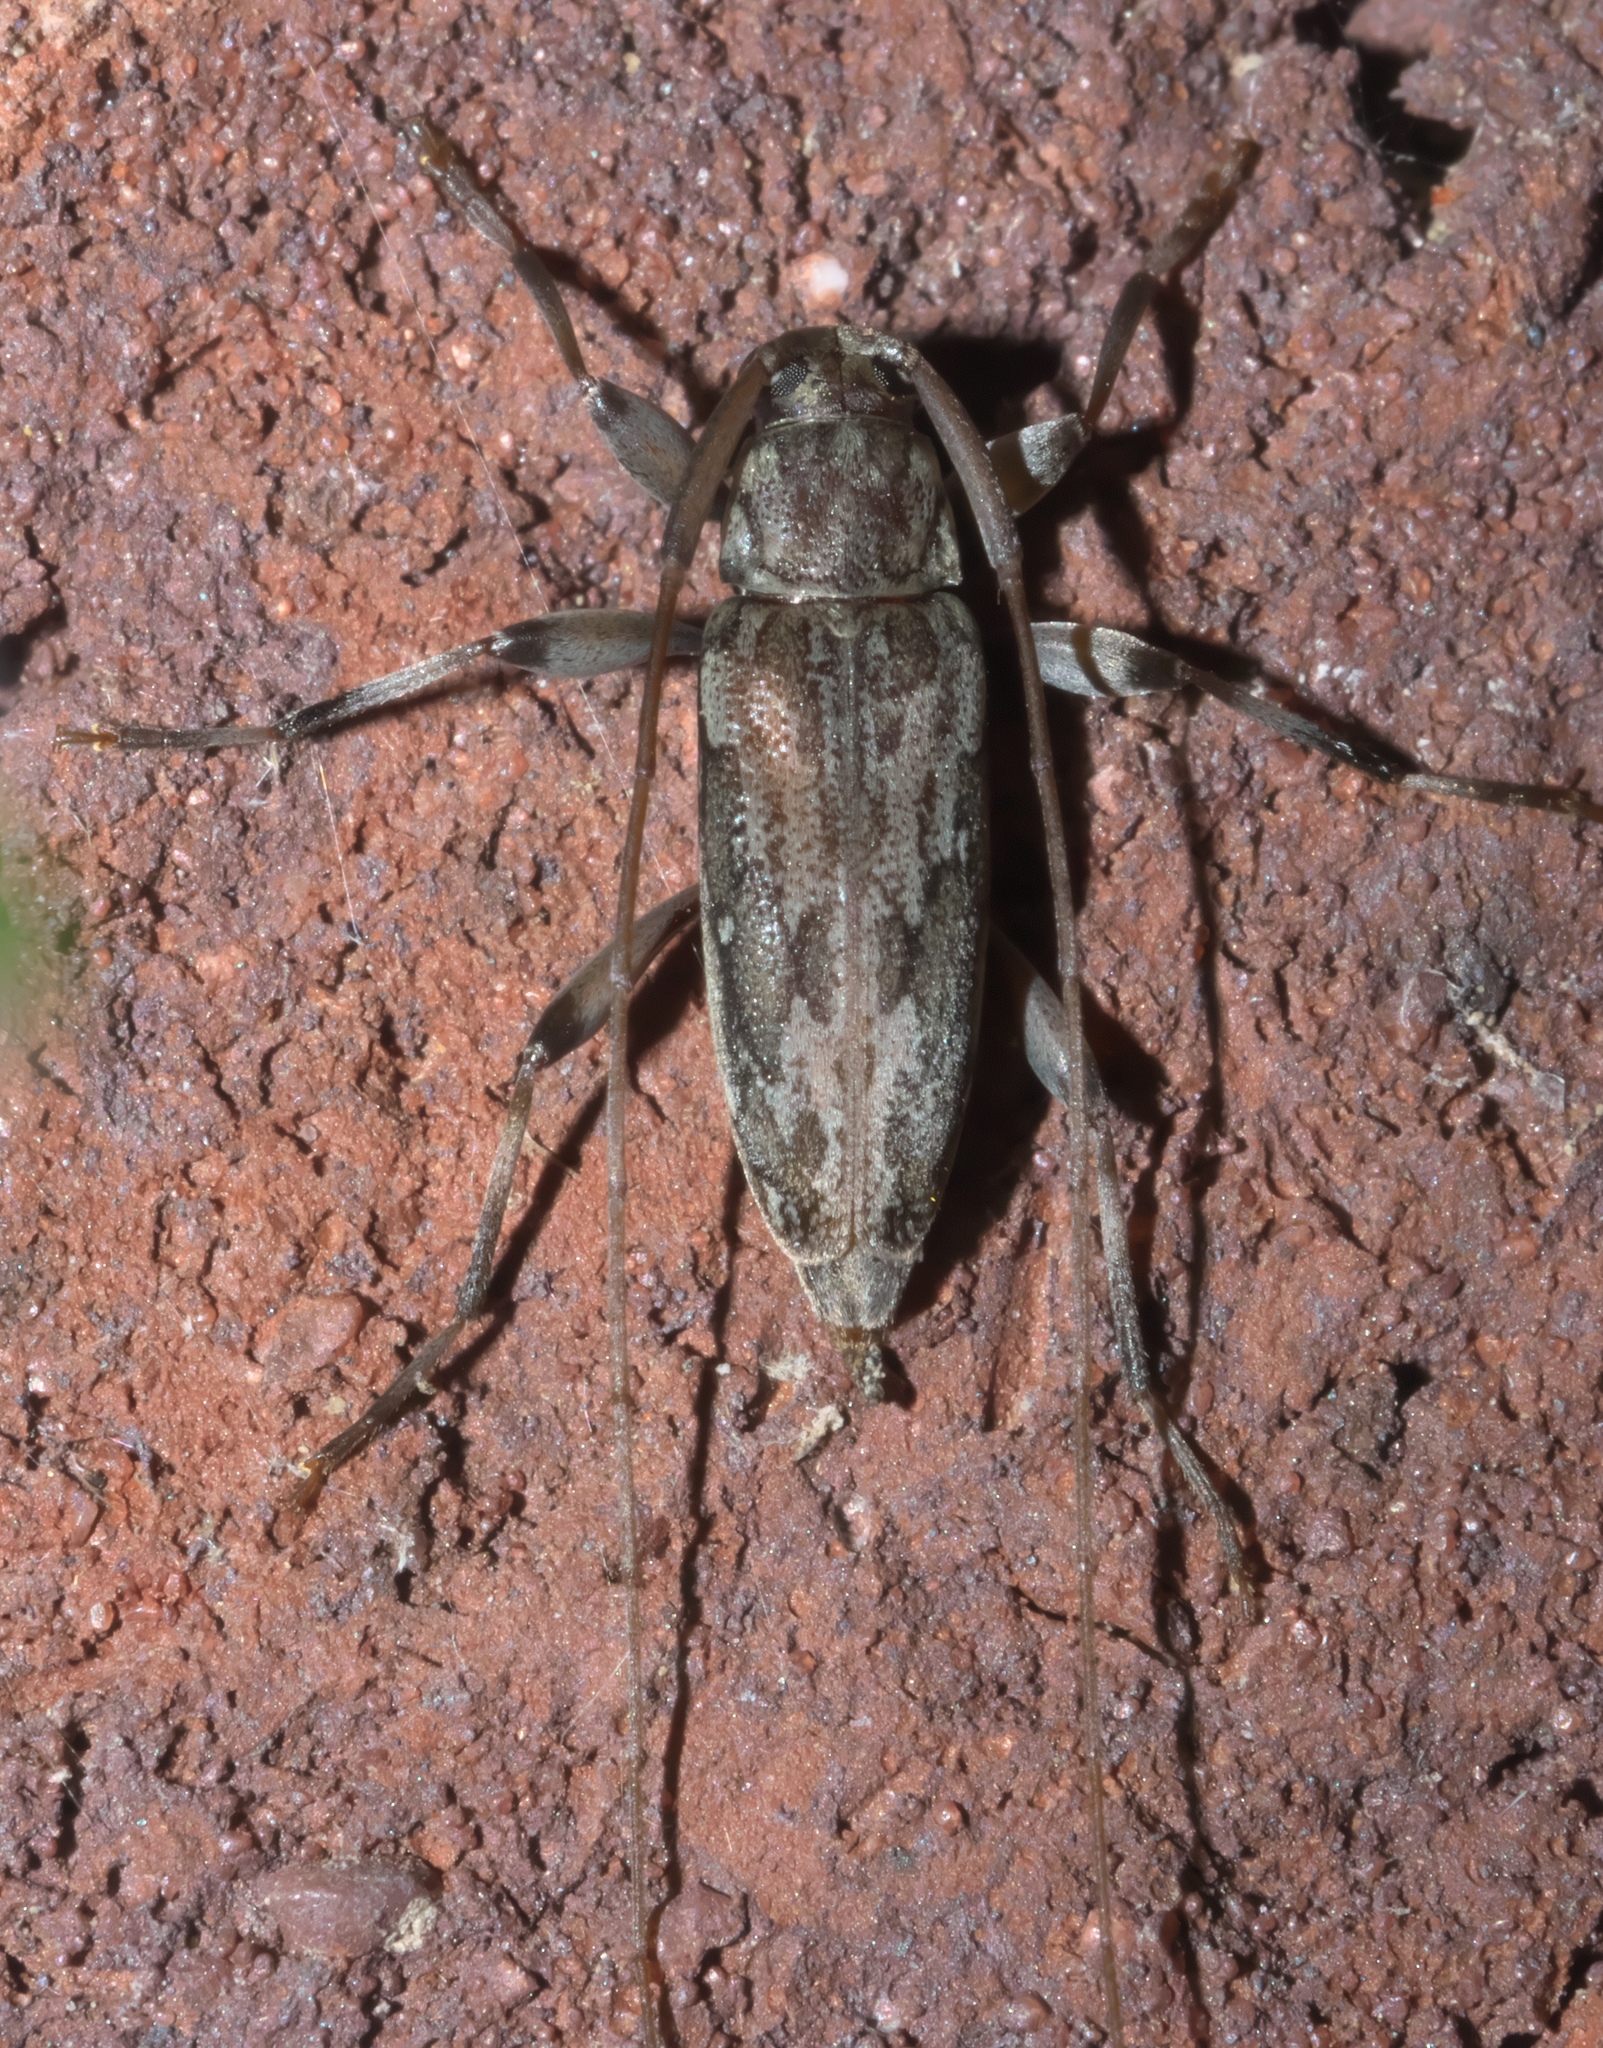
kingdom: Animalia
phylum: Arthropoda
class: Insecta
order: Coleoptera
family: Cerambycidae
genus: Lepturges
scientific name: Lepturges confluens
